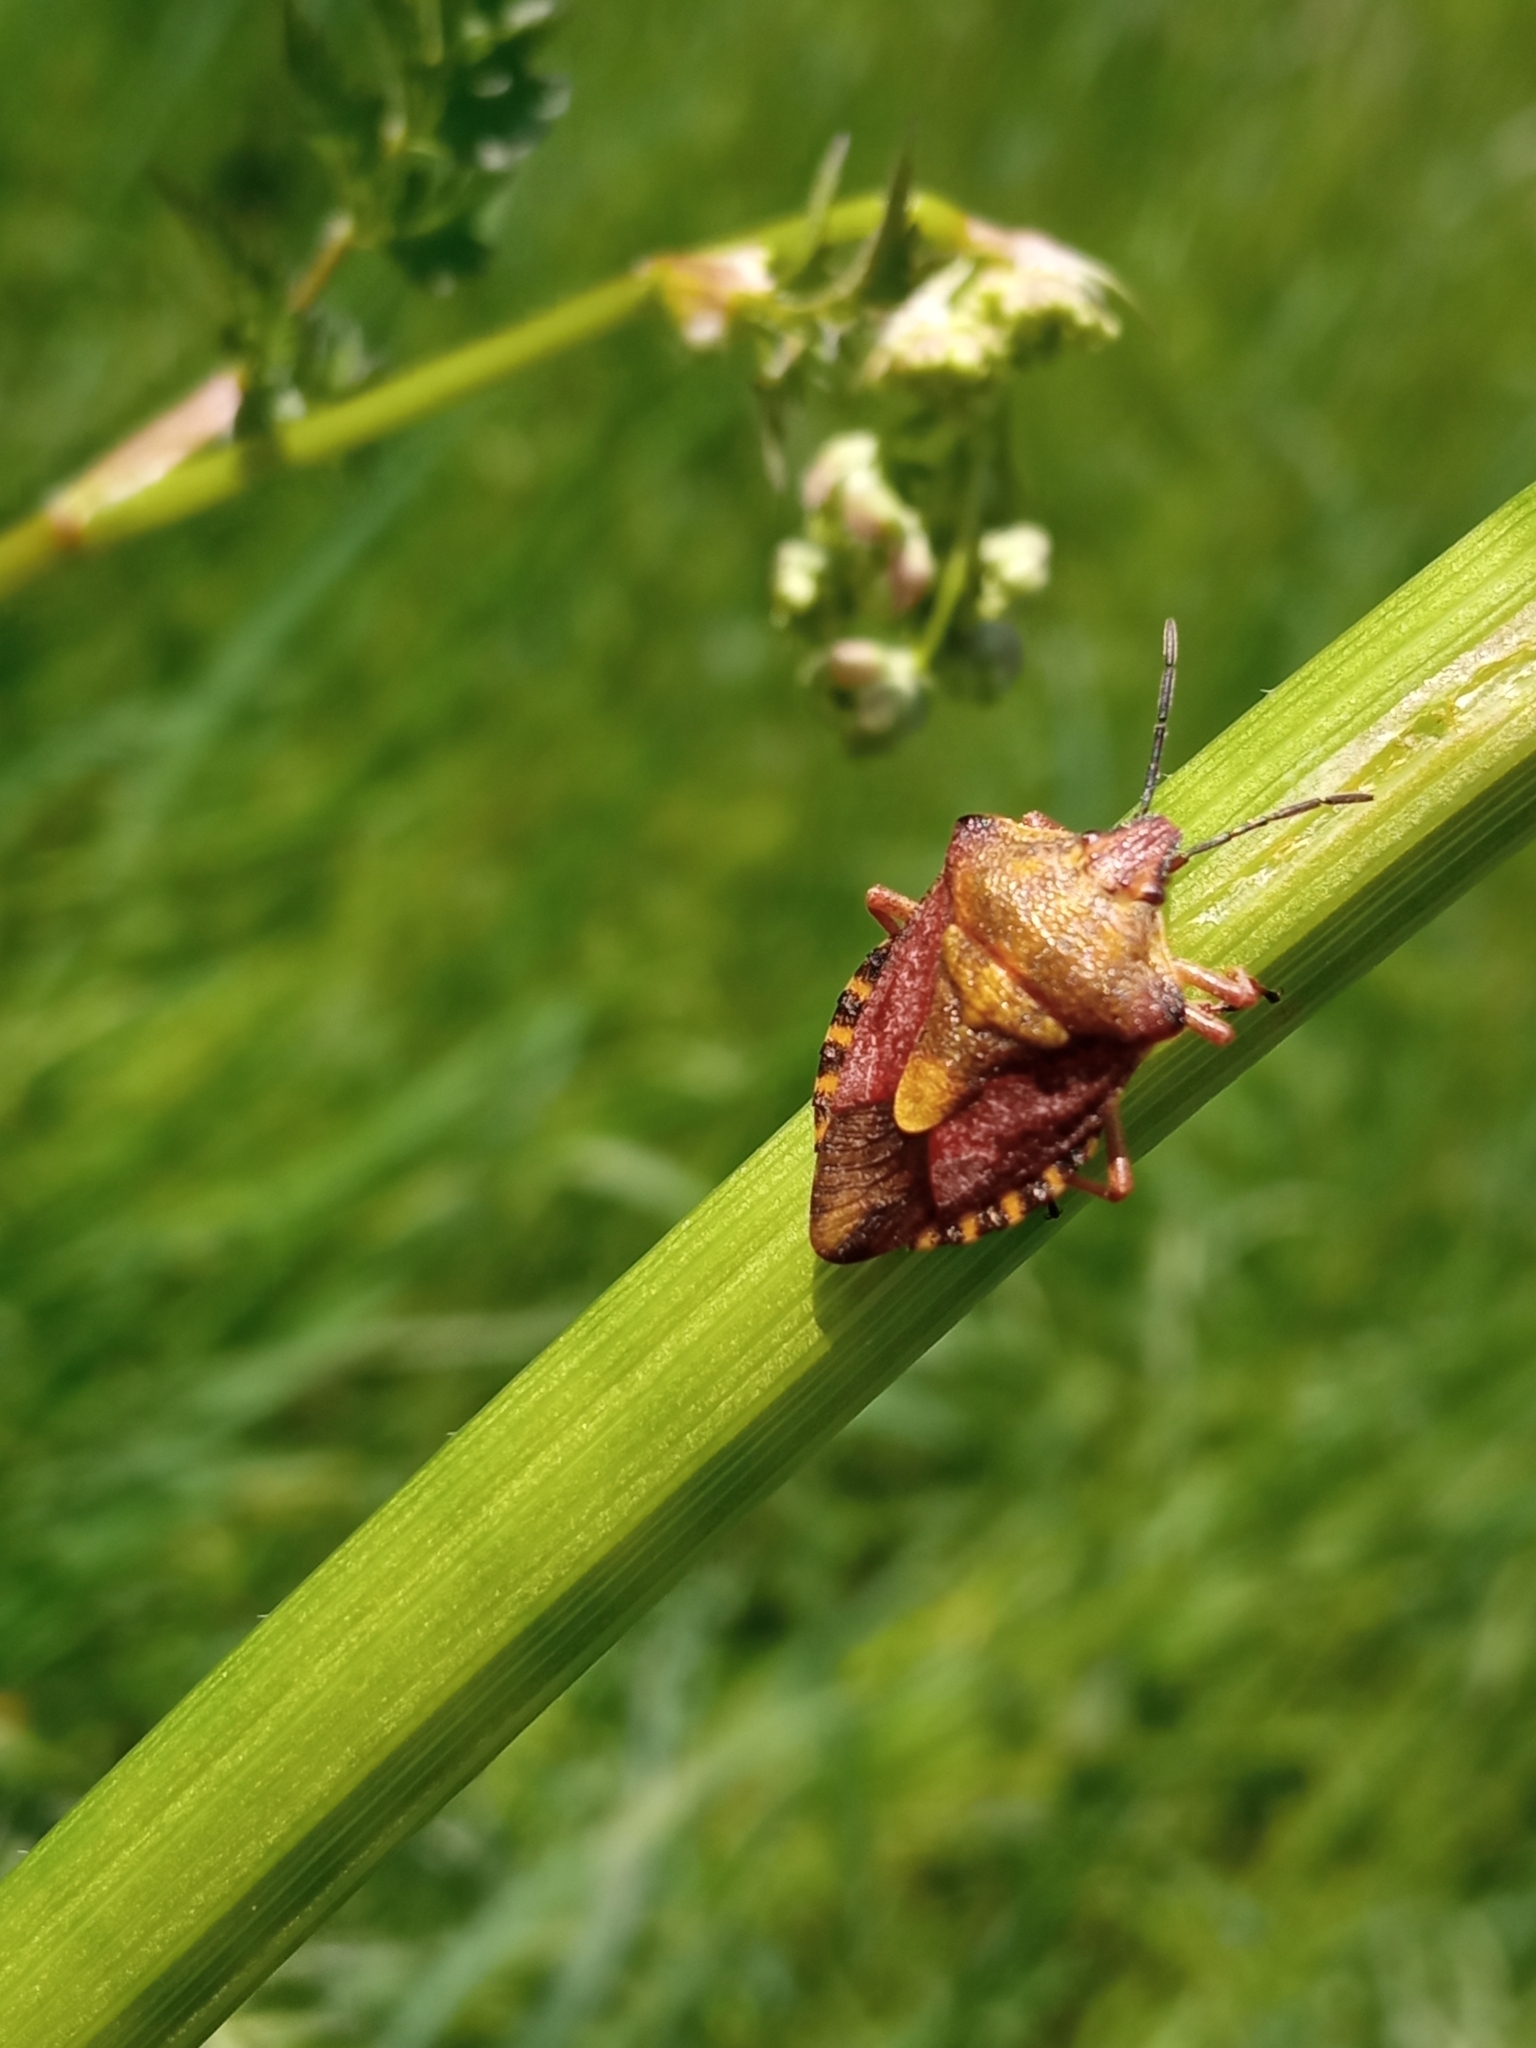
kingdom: Animalia
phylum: Arthropoda
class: Insecta
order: Hemiptera
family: Pentatomidae
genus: Carpocoris
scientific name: Carpocoris purpureipennis
